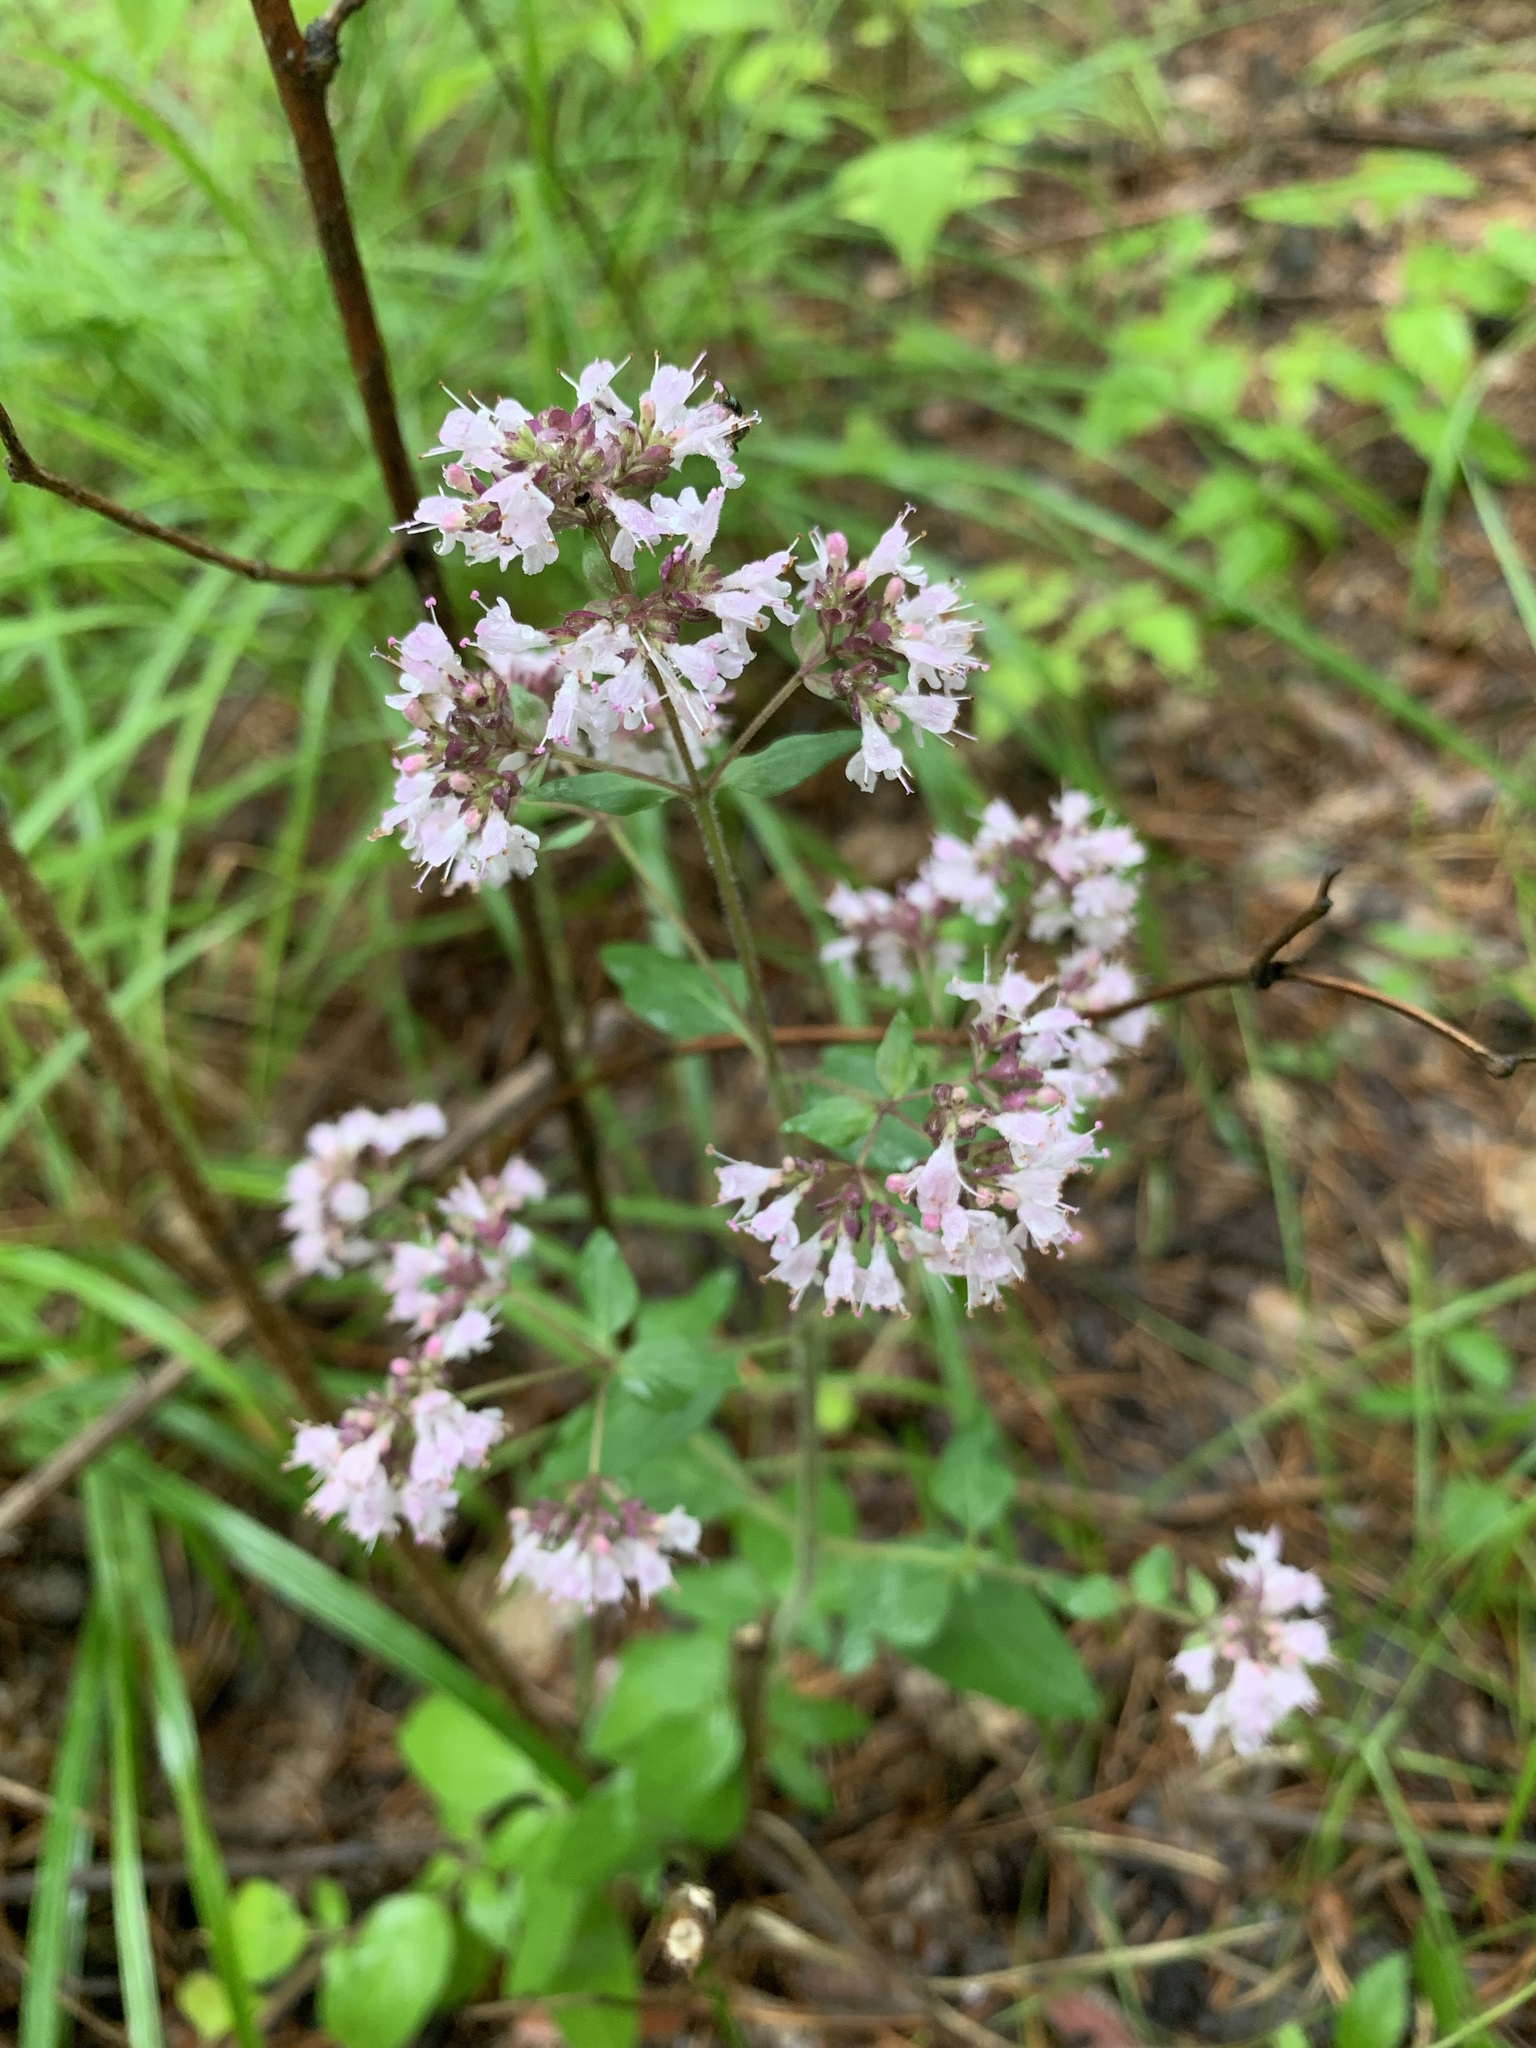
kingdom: Plantae
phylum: Tracheophyta
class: Magnoliopsida
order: Lamiales
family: Lamiaceae
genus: Origanum
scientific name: Origanum vulgare
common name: Wild marjoram
